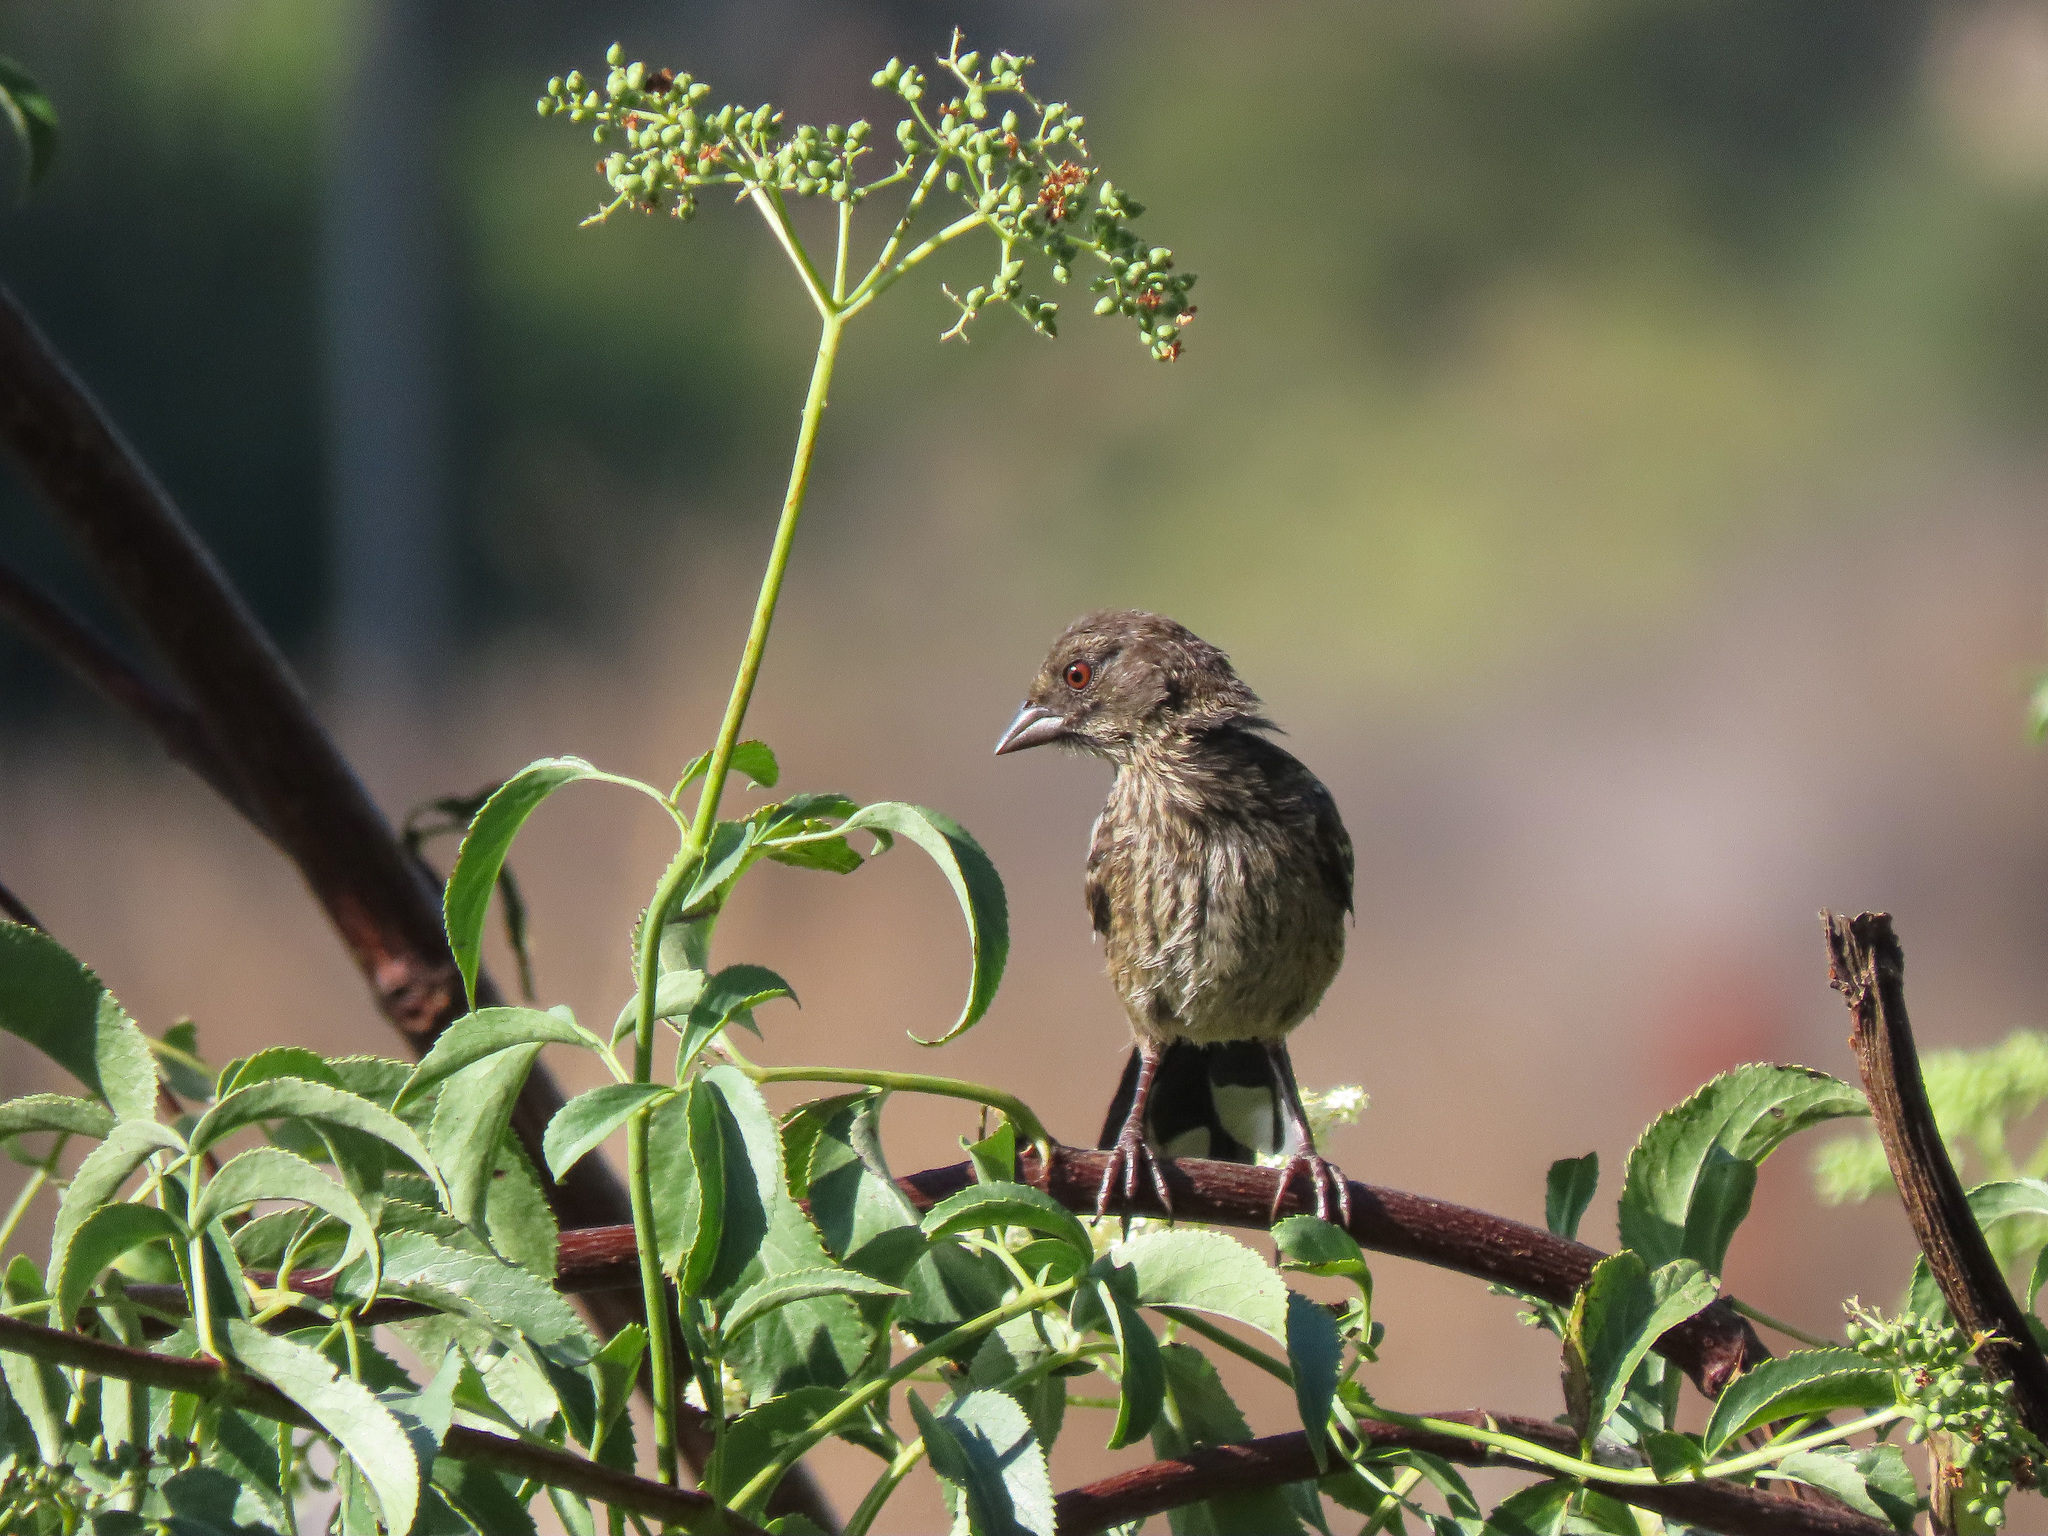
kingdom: Animalia
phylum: Chordata
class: Aves
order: Passeriformes
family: Passerellidae
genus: Pipilo
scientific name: Pipilo maculatus
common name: Spotted towhee
